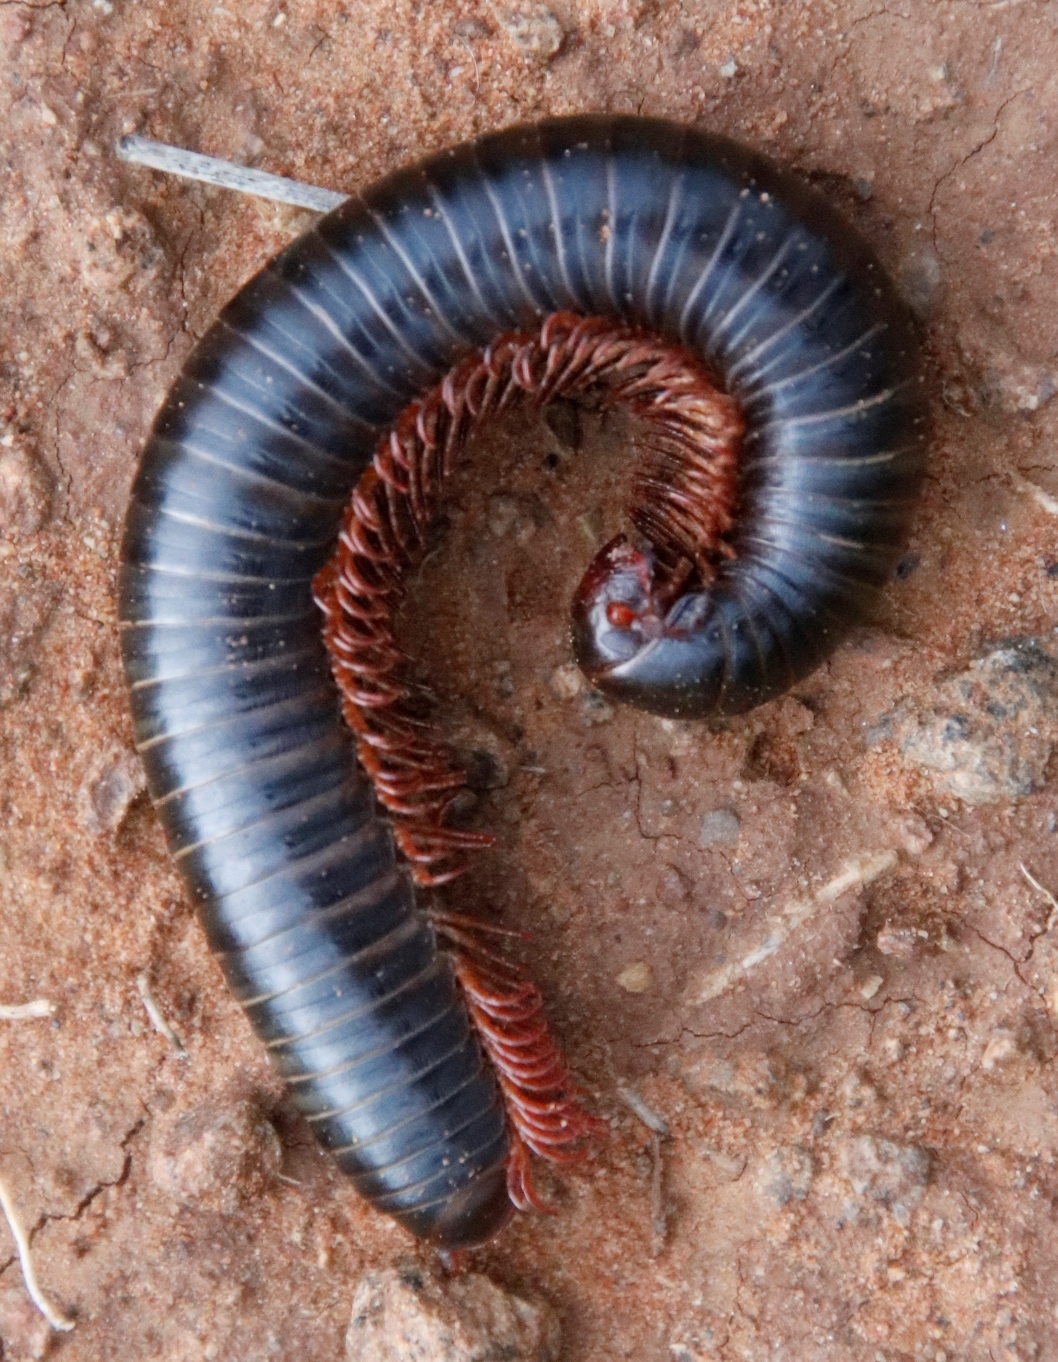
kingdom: Animalia
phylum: Arthropoda
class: Diplopoda
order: Spirostreptida
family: Harpagophoridae
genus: Zinophora
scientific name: Zinophora brevispina
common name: Short-spined large spined millipede
